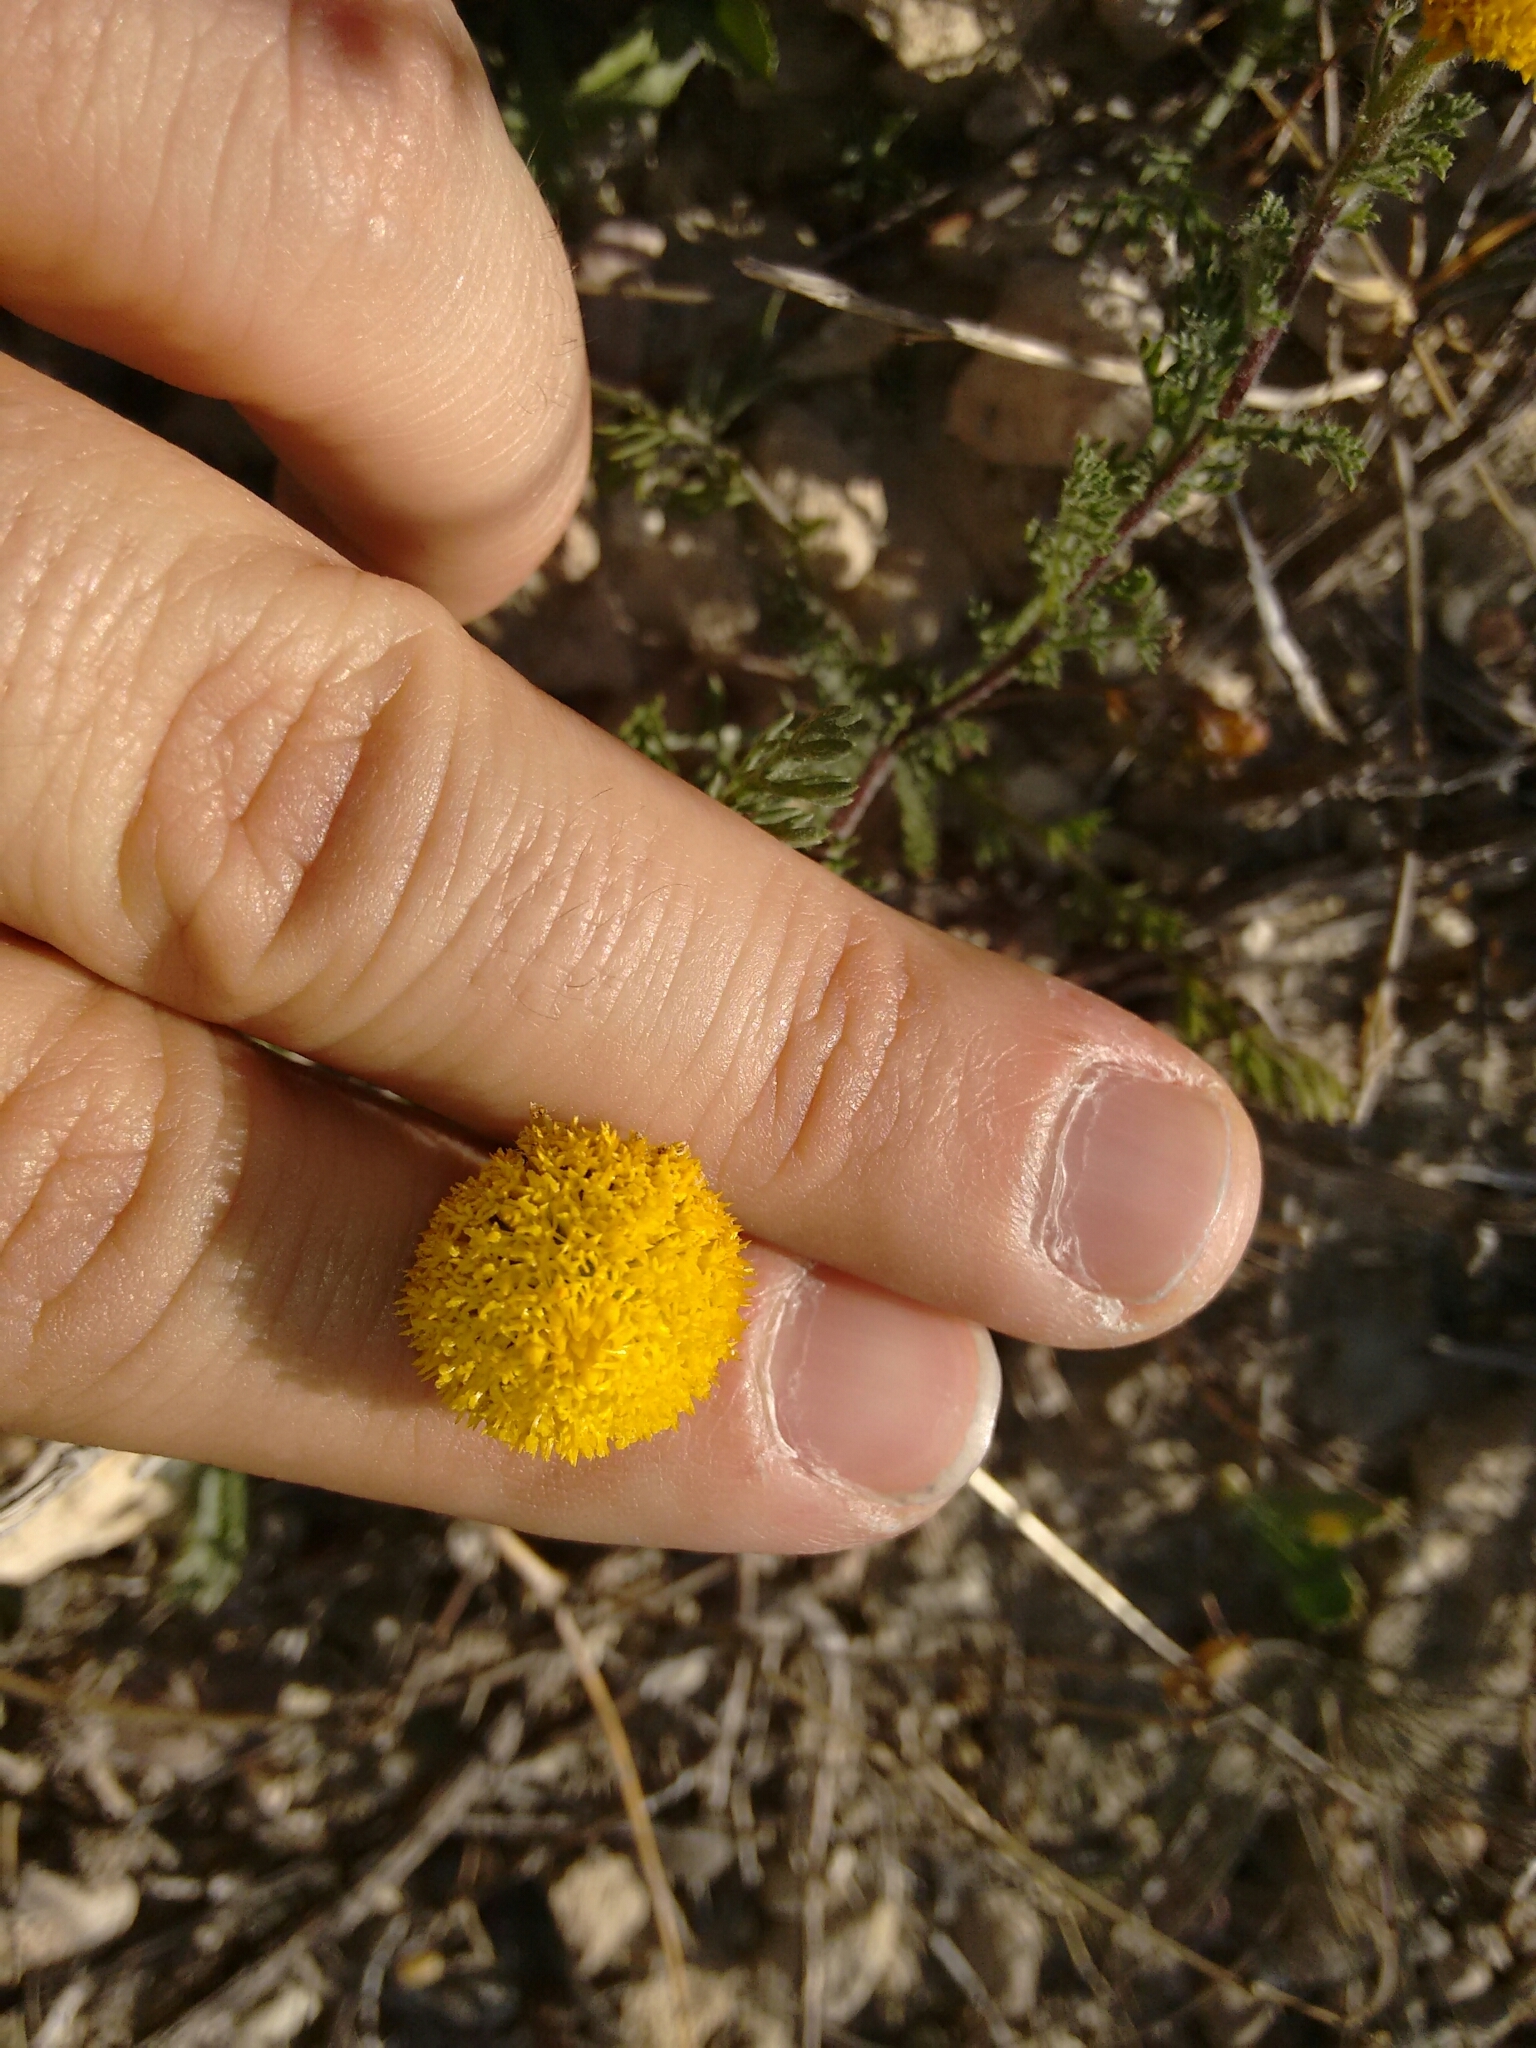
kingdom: Plantae
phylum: Tracheophyta
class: Magnoliopsida
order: Asterales
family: Asteraceae
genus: Anacyclus
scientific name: Anacyclus valentinus
